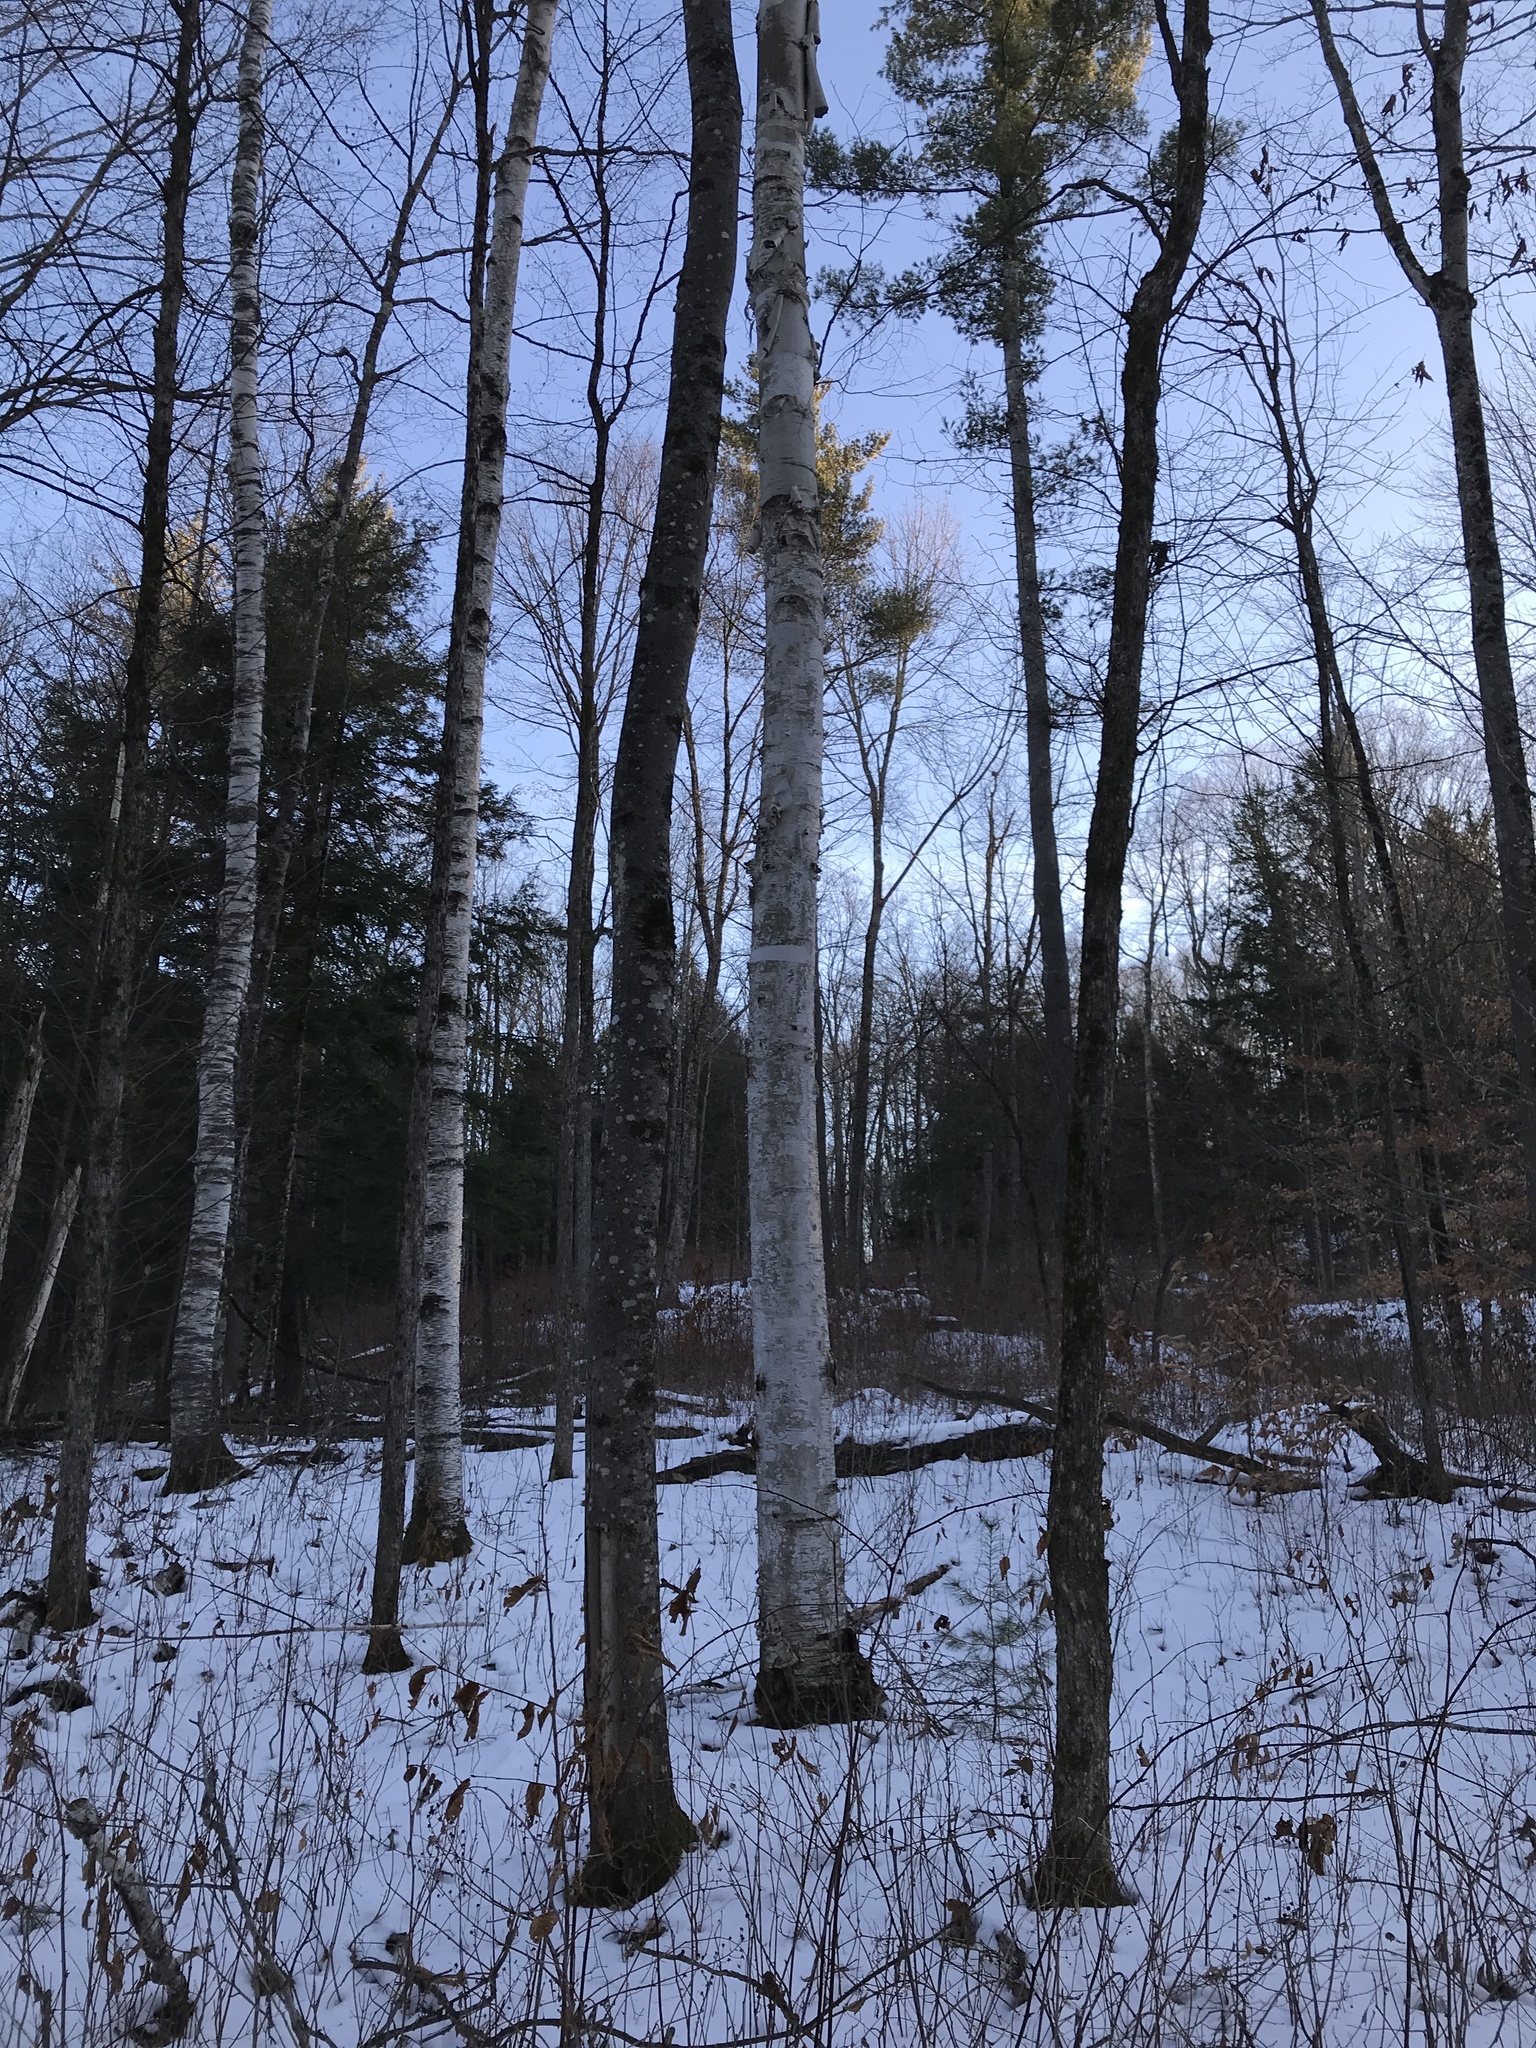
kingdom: Plantae
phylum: Tracheophyta
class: Magnoliopsida
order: Fagales
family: Betulaceae
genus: Betula
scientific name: Betula papyrifera
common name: Paper birch
